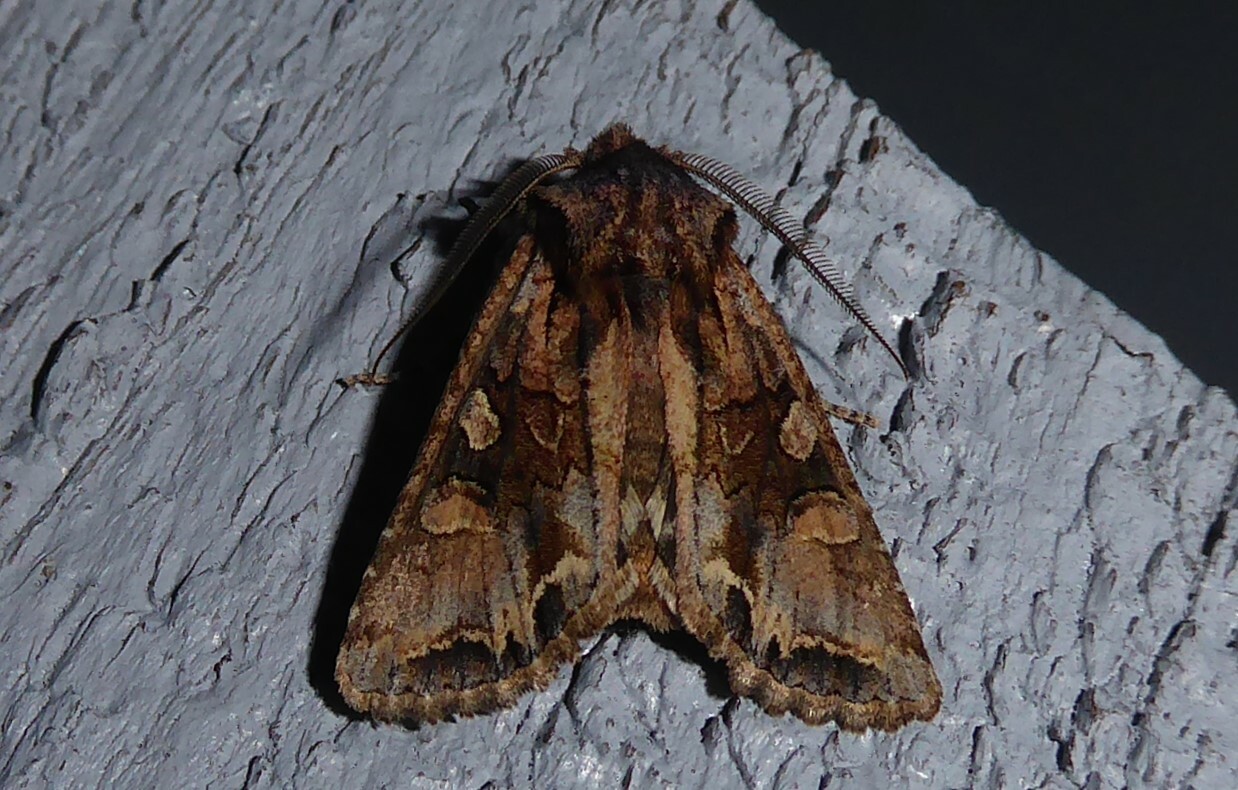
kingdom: Animalia
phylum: Arthropoda
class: Insecta
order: Lepidoptera
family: Noctuidae
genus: Ichneutica
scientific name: Ichneutica
